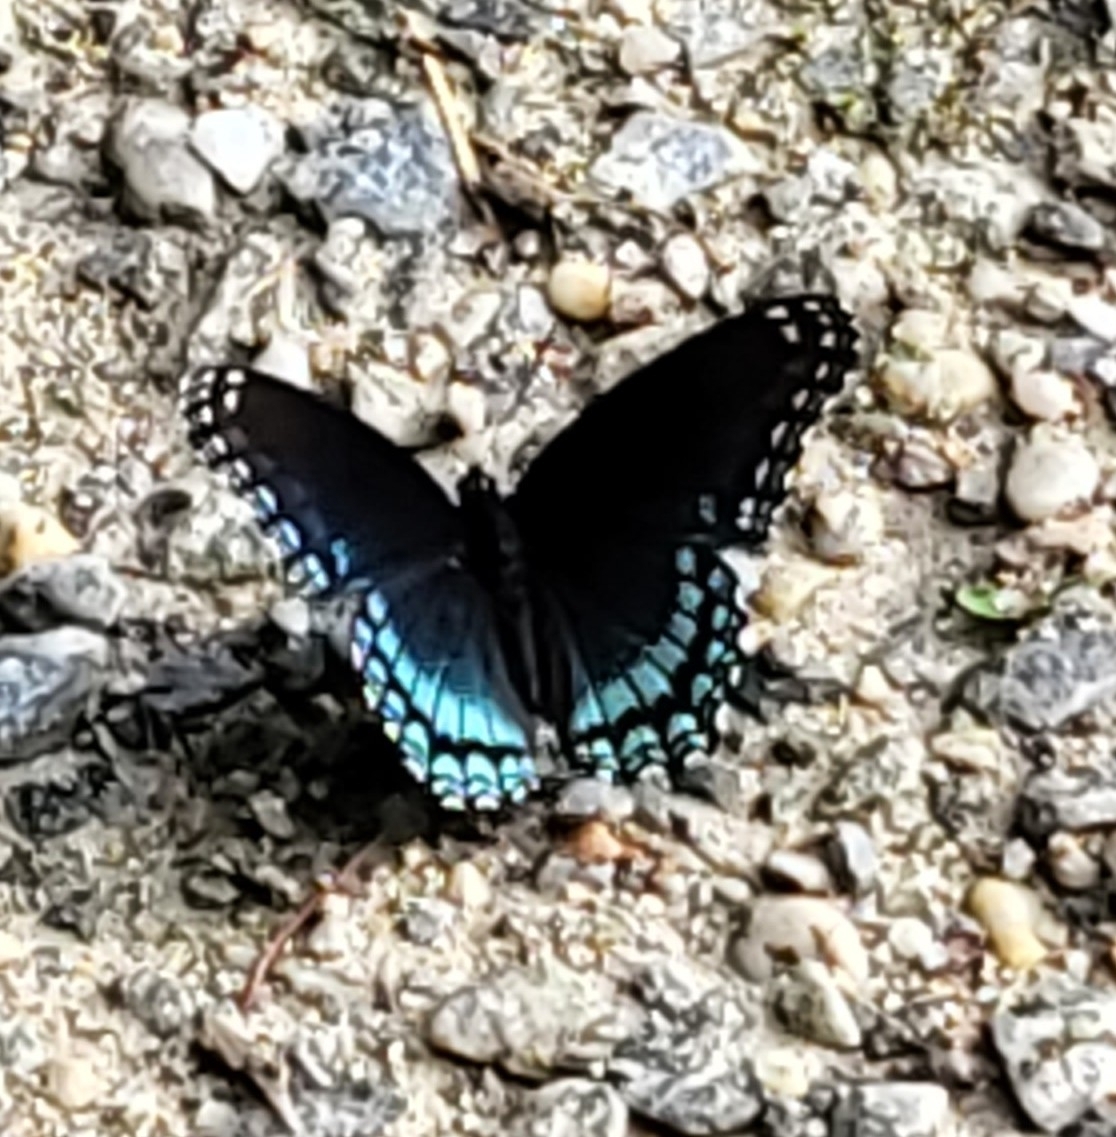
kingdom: Animalia
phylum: Arthropoda
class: Insecta
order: Lepidoptera
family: Nymphalidae
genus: Limenitis
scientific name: Limenitis astyanax
